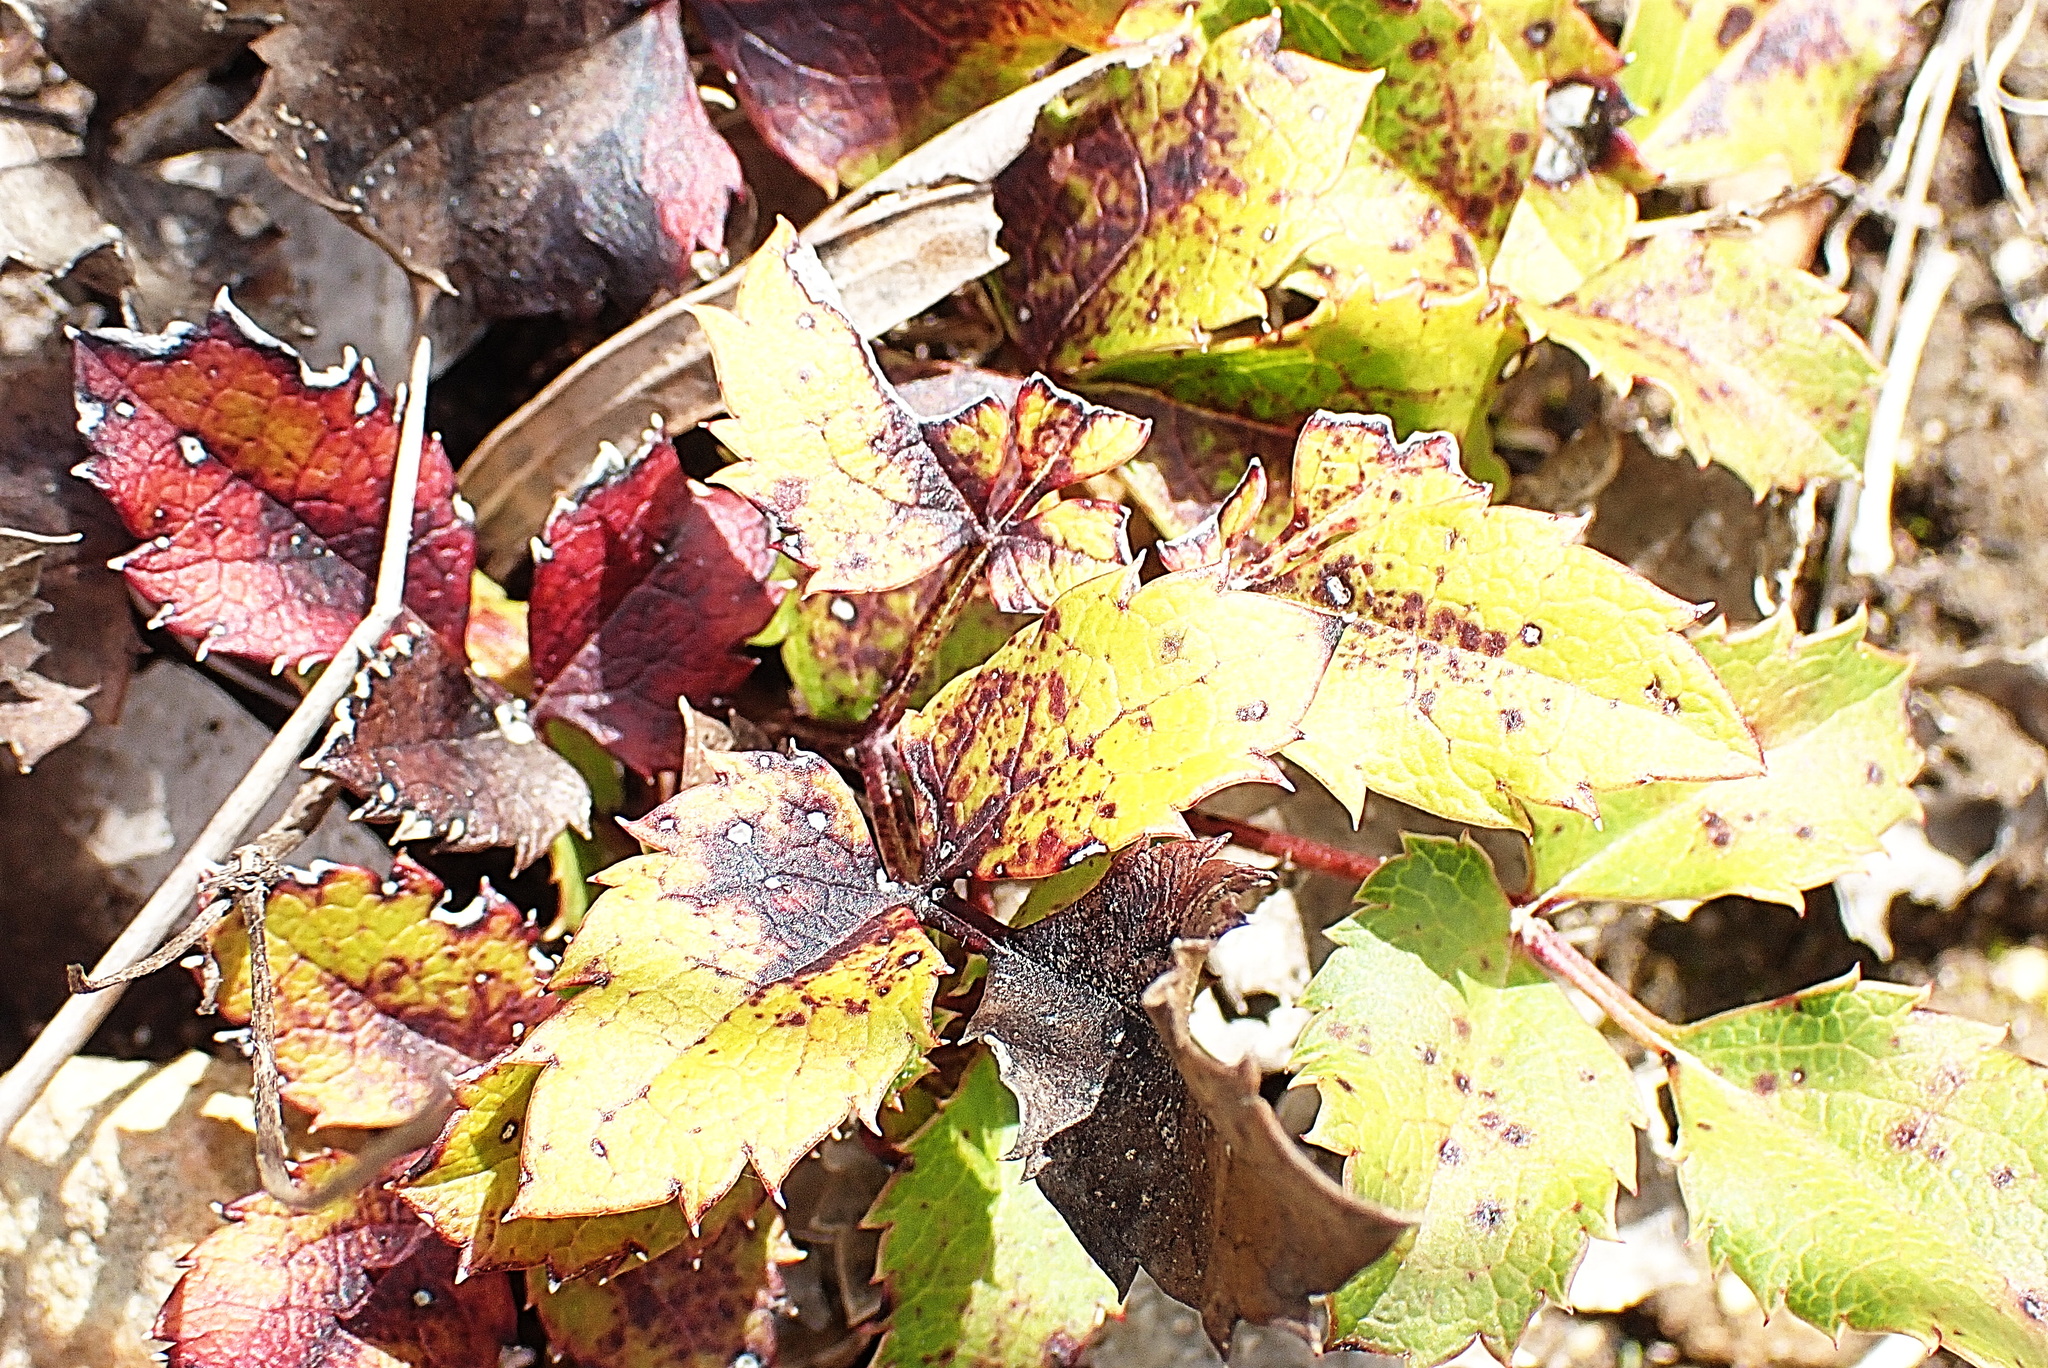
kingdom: Plantae
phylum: Tracheophyta
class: Magnoliopsida
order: Ranunculales
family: Ranunculaceae
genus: Knowltonia
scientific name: Knowltonia vesicatoria
